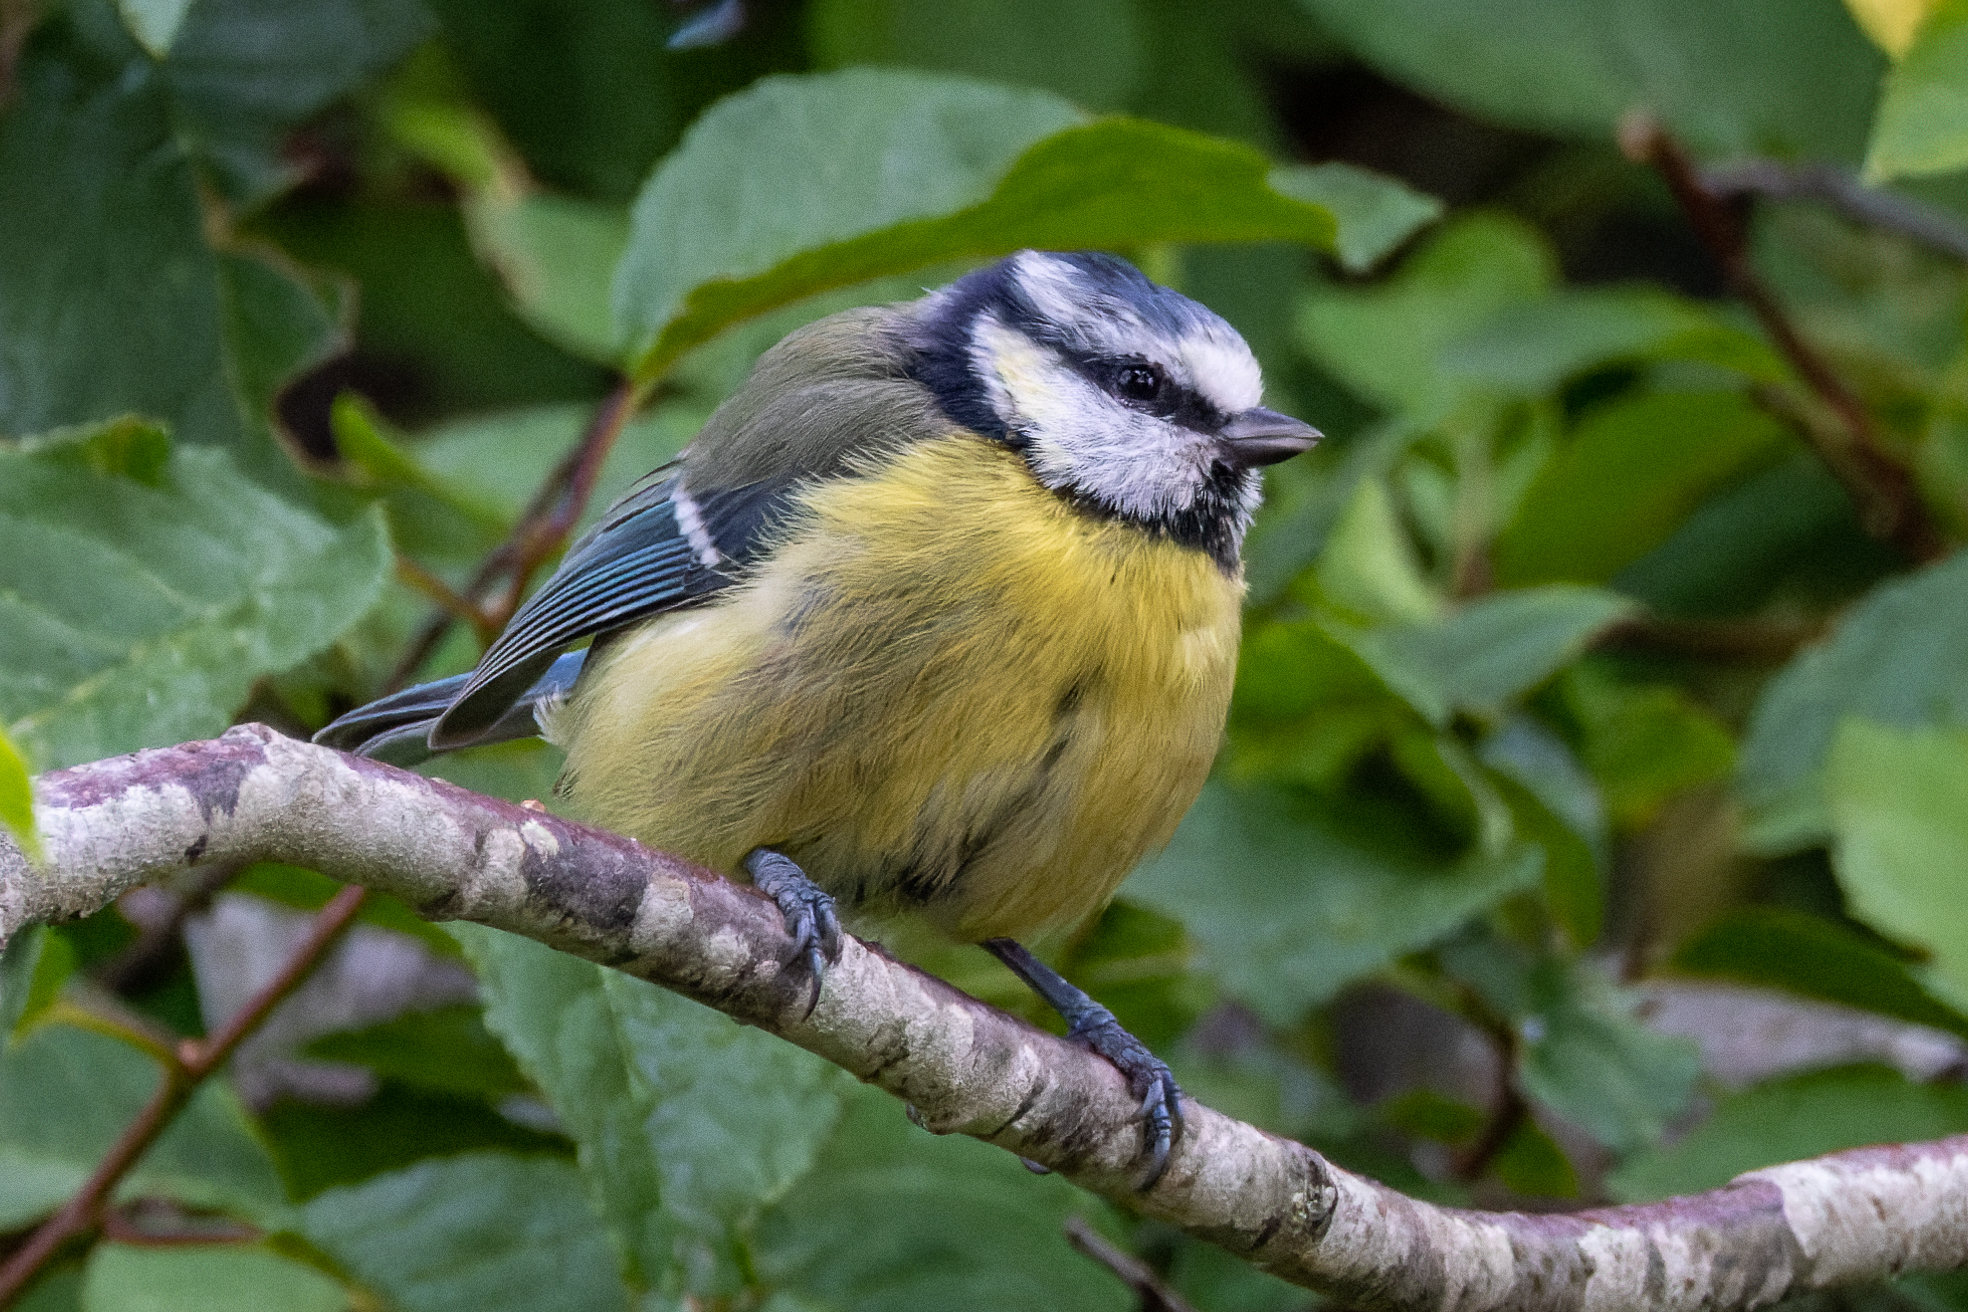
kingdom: Animalia
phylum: Chordata
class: Aves
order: Passeriformes
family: Paridae
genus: Cyanistes
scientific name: Cyanistes caeruleus
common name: Eurasian blue tit
